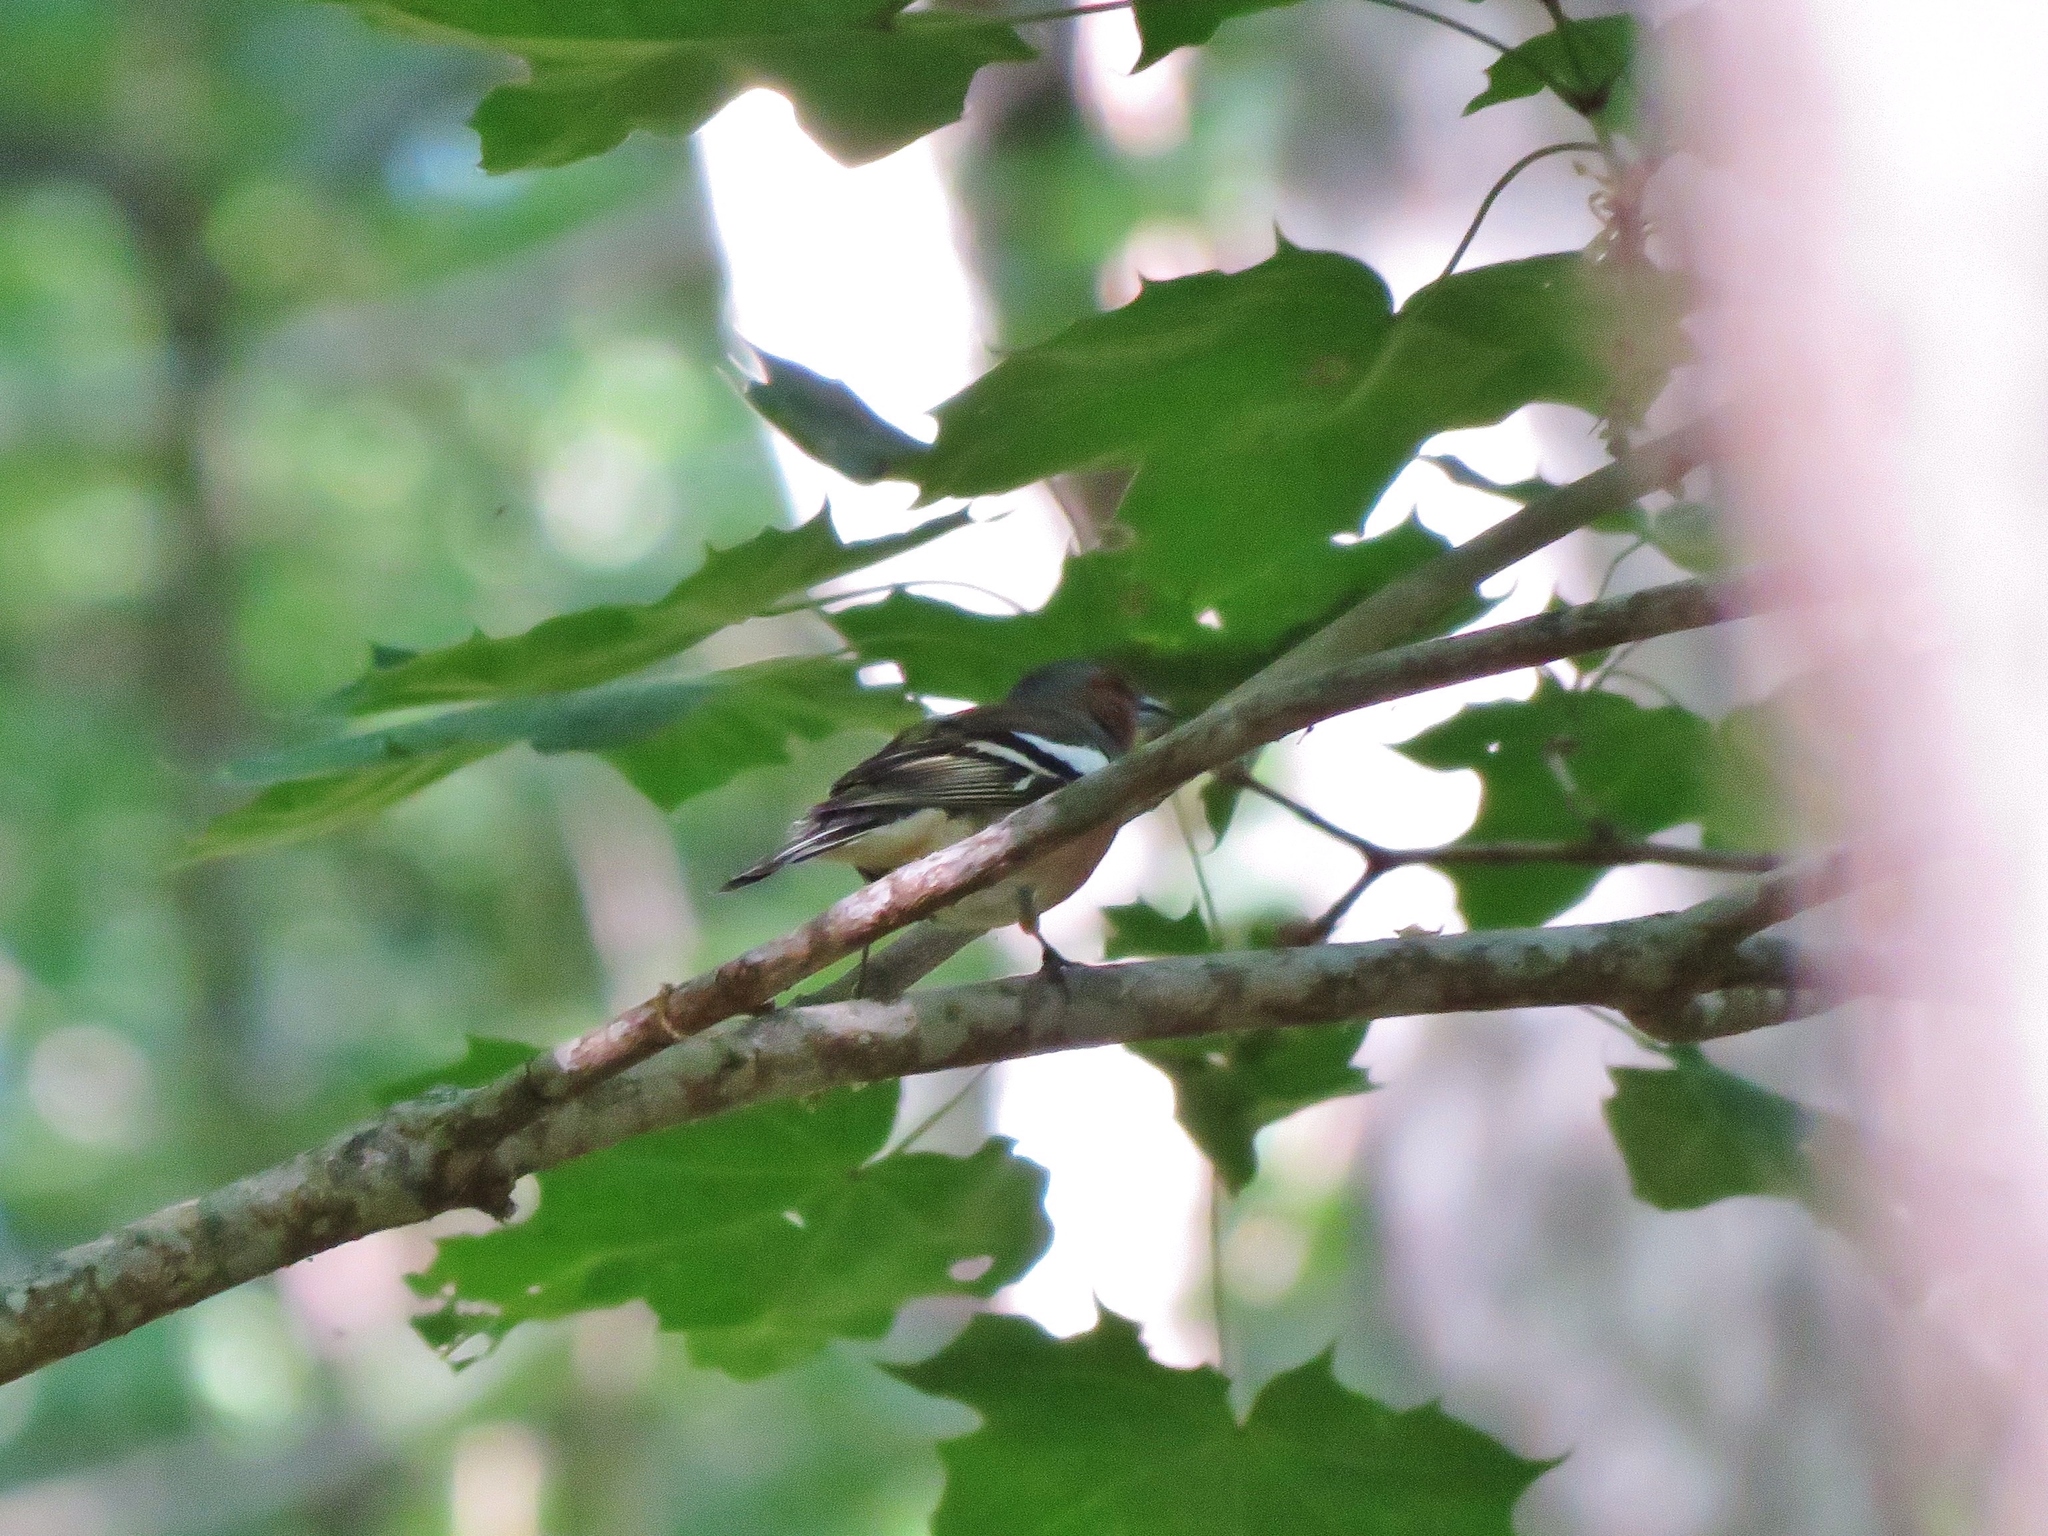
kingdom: Animalia
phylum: Chordata
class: Aves
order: Passeriformes
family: Fringillidae
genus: Fringilla
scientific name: Fringilla coelebs
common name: Common chaffinch
